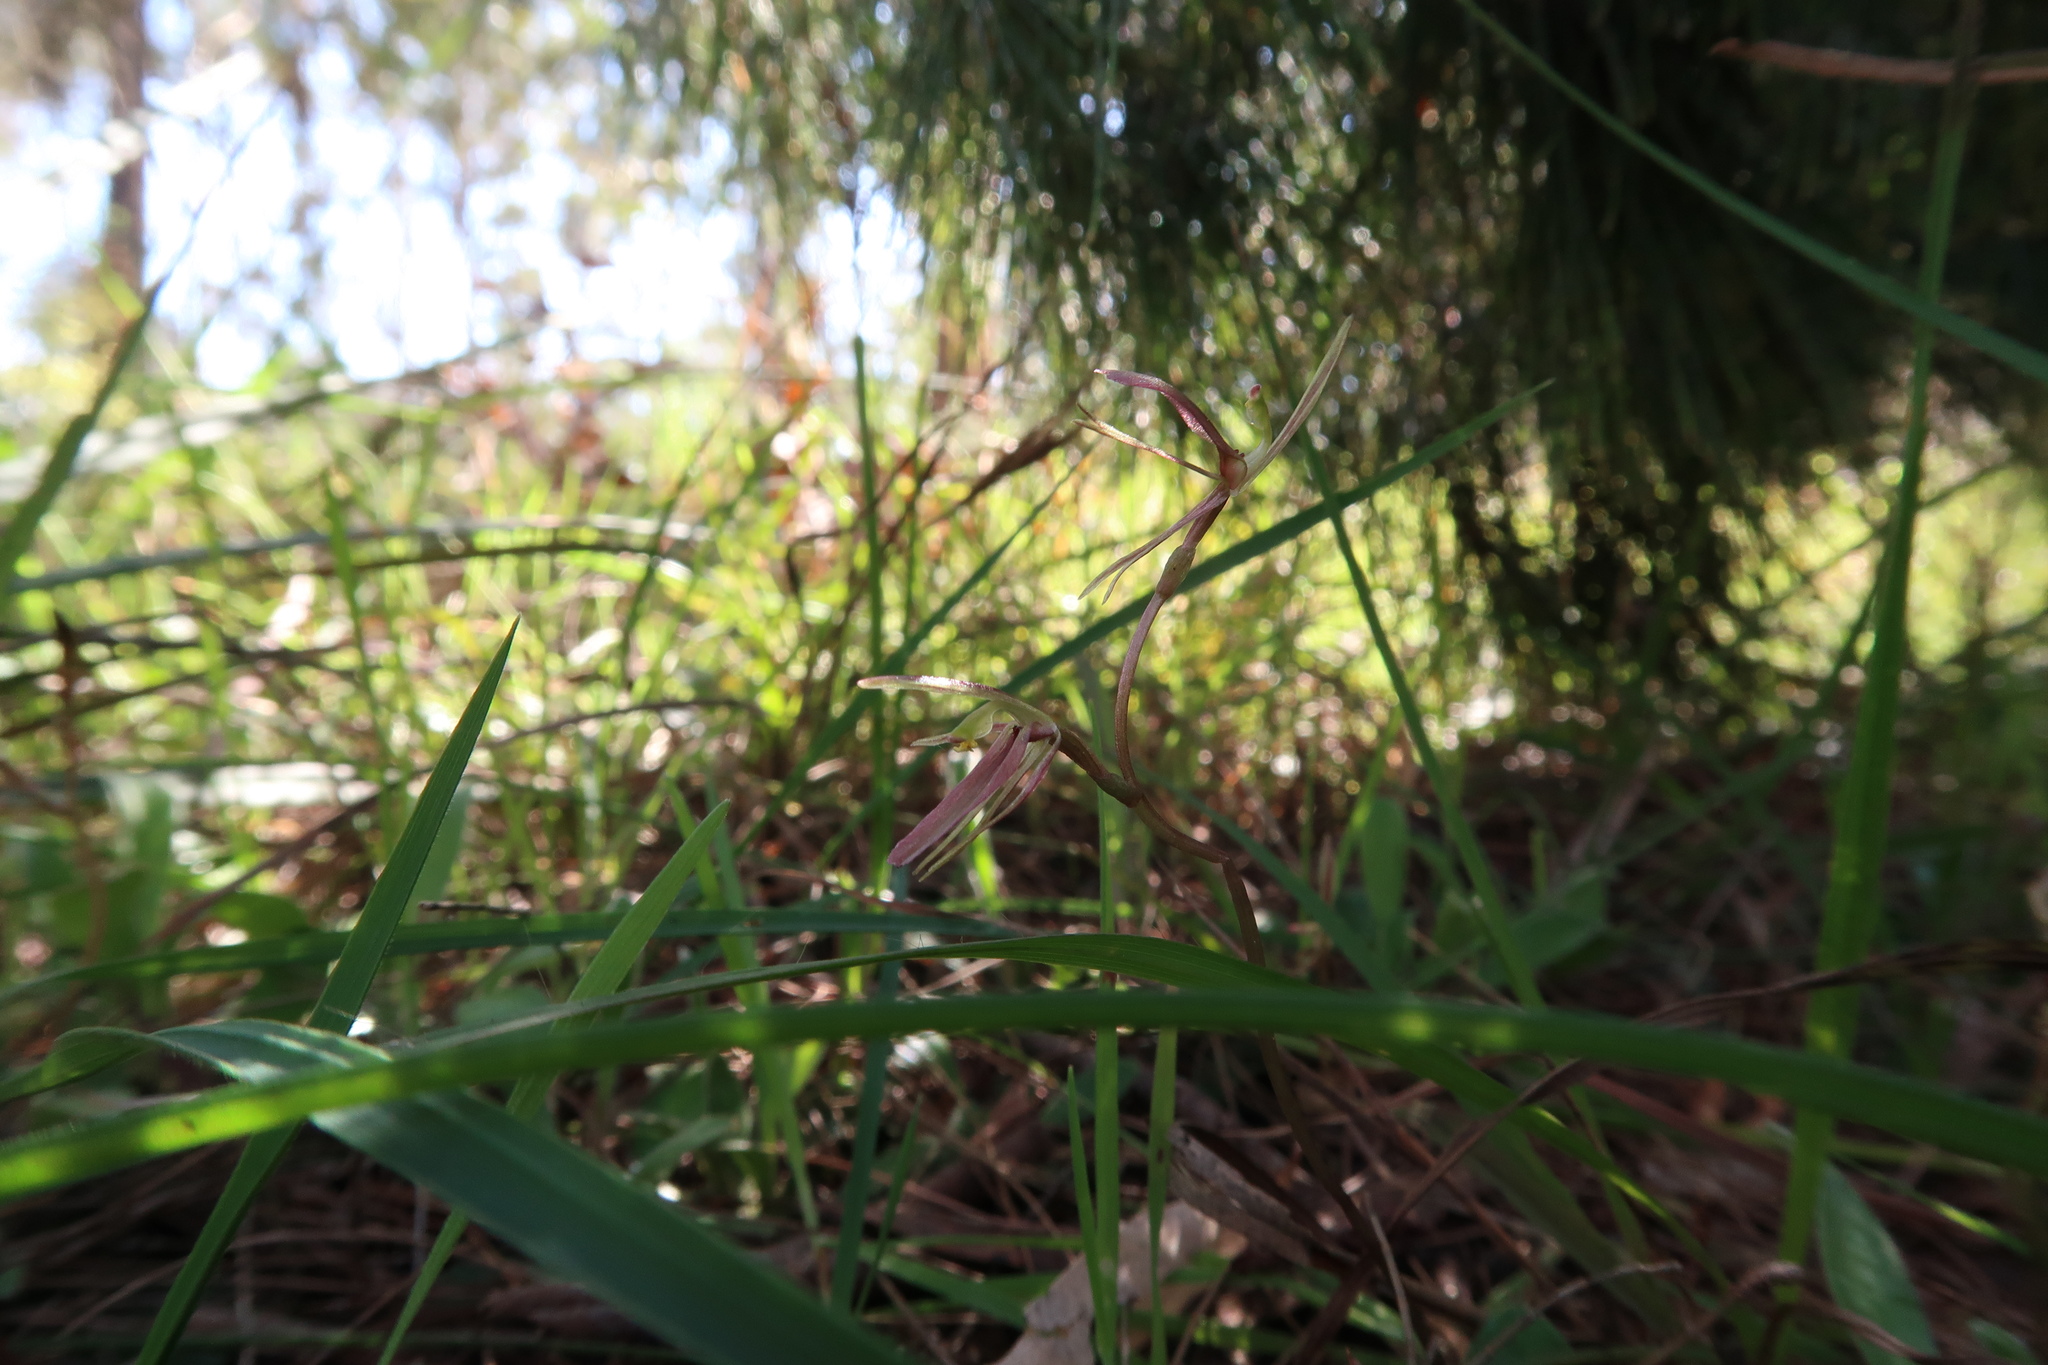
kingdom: Plantae
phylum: Tracheophyta
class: Liliopsida
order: Asparagales
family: Orchidaceae
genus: Cyrtostylis
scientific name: Cyrtostylis reniformis
